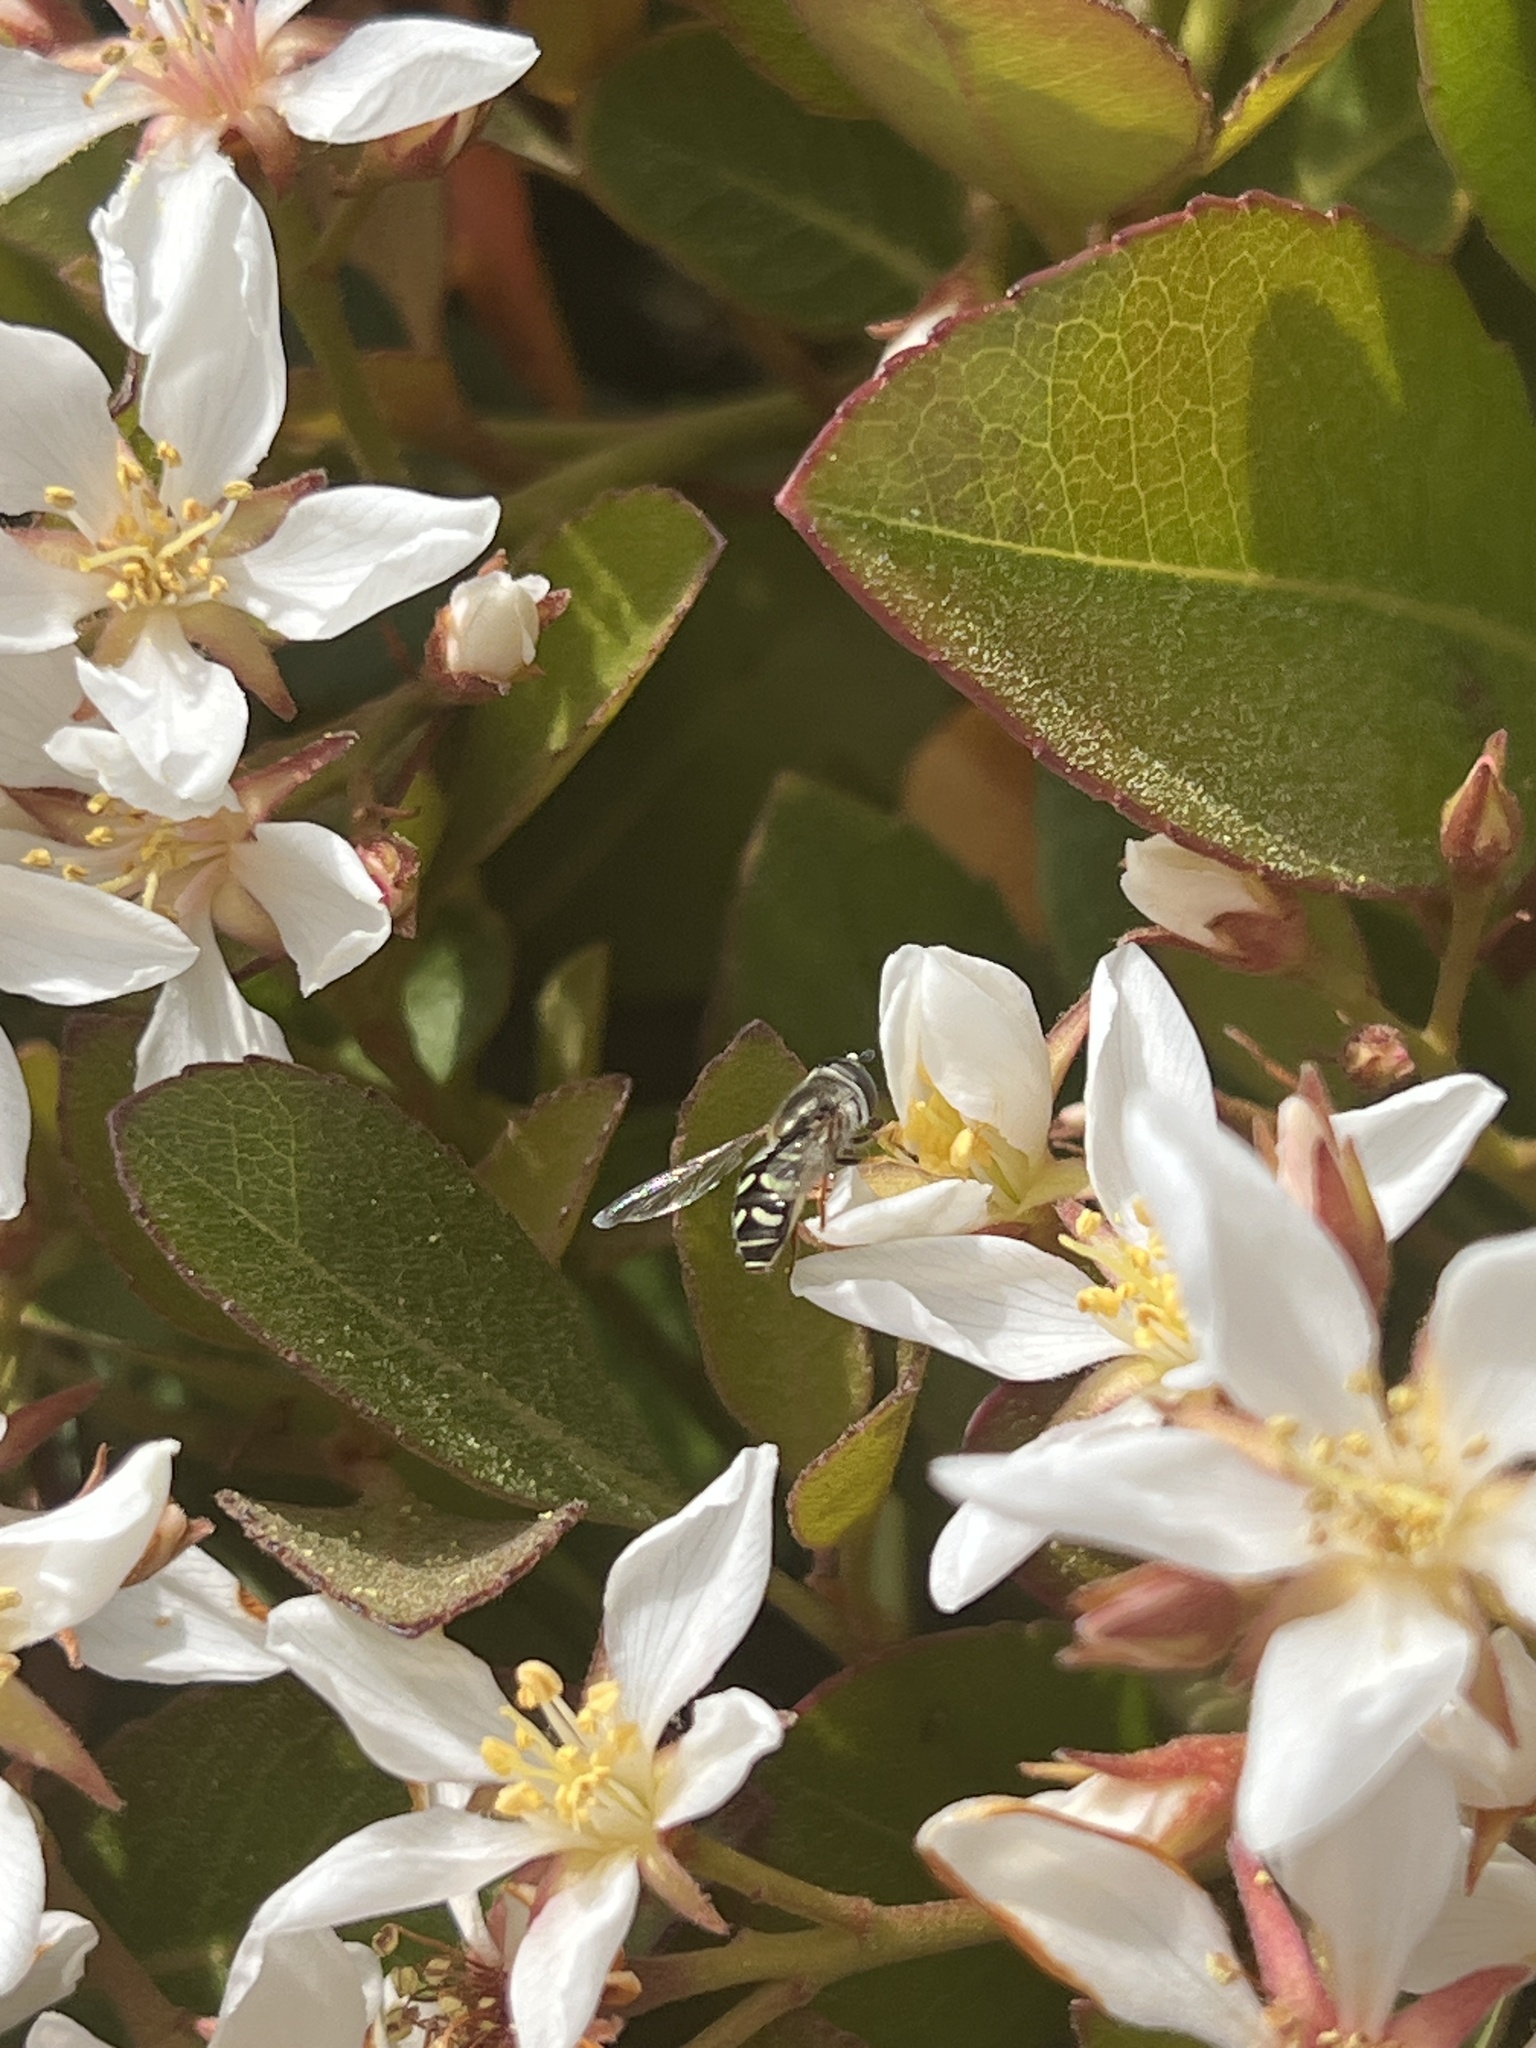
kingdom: Animalia
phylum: Arthropoda
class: Insecta
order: Diptera
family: Syrphidae
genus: Eupeodes
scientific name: Eupeodes volucris
